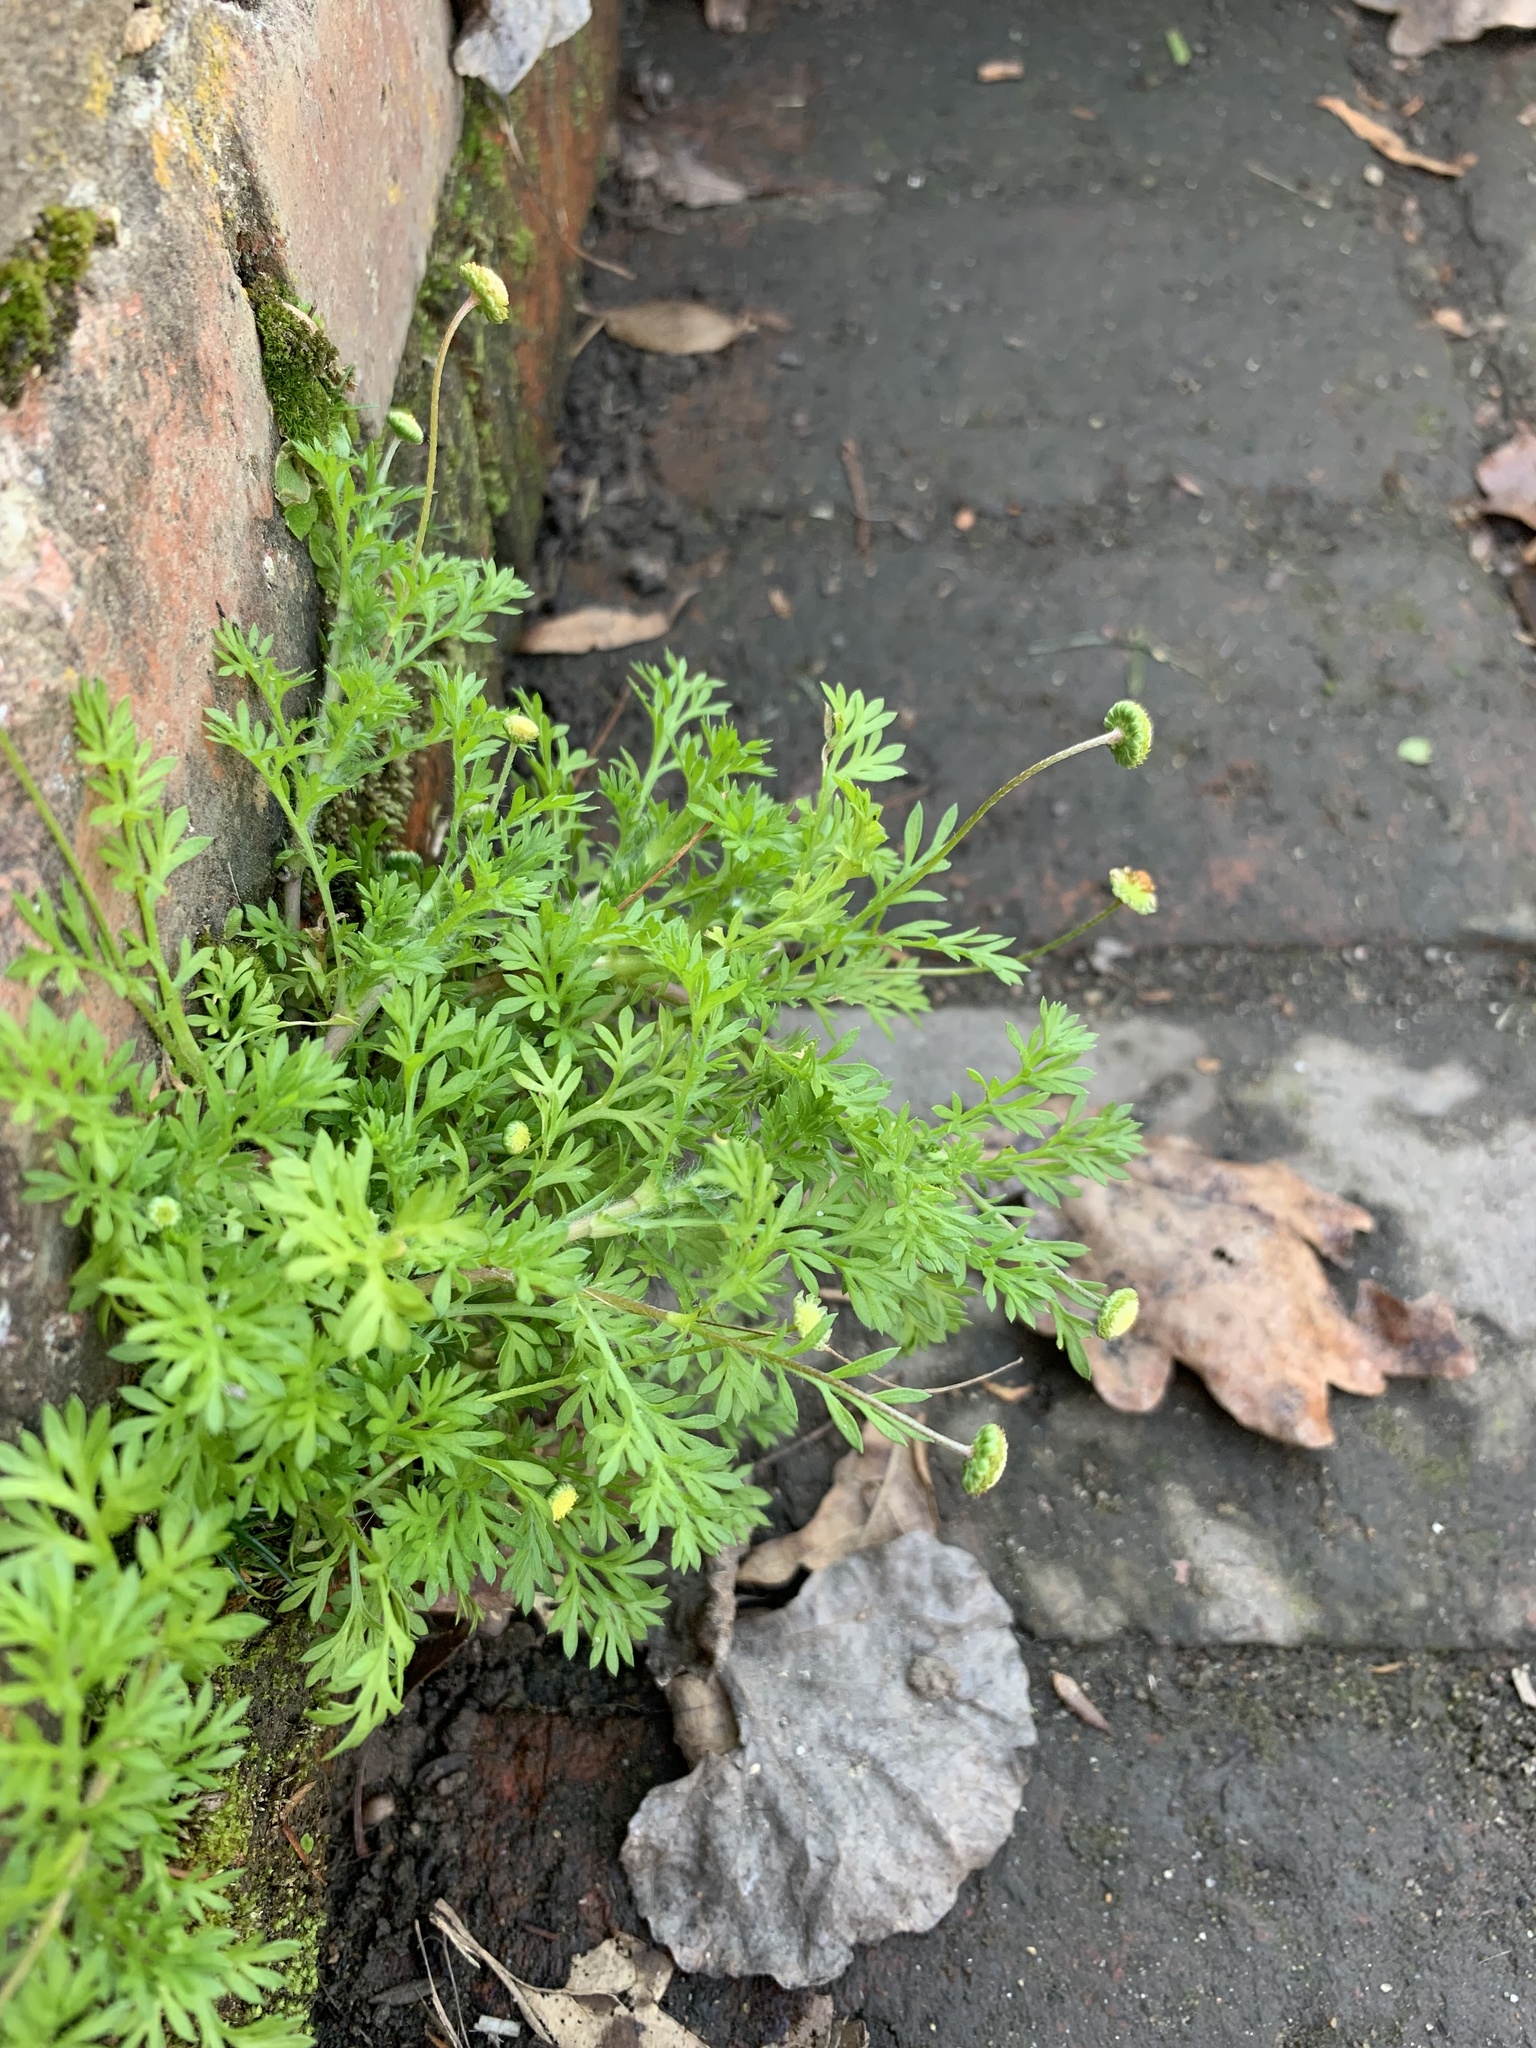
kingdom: Plantae
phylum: Tracheophyta
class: Magnoliopsida
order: Asterales
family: Asteraceae
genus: Cotula
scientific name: Cotula australis
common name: Australian waterbuttons
